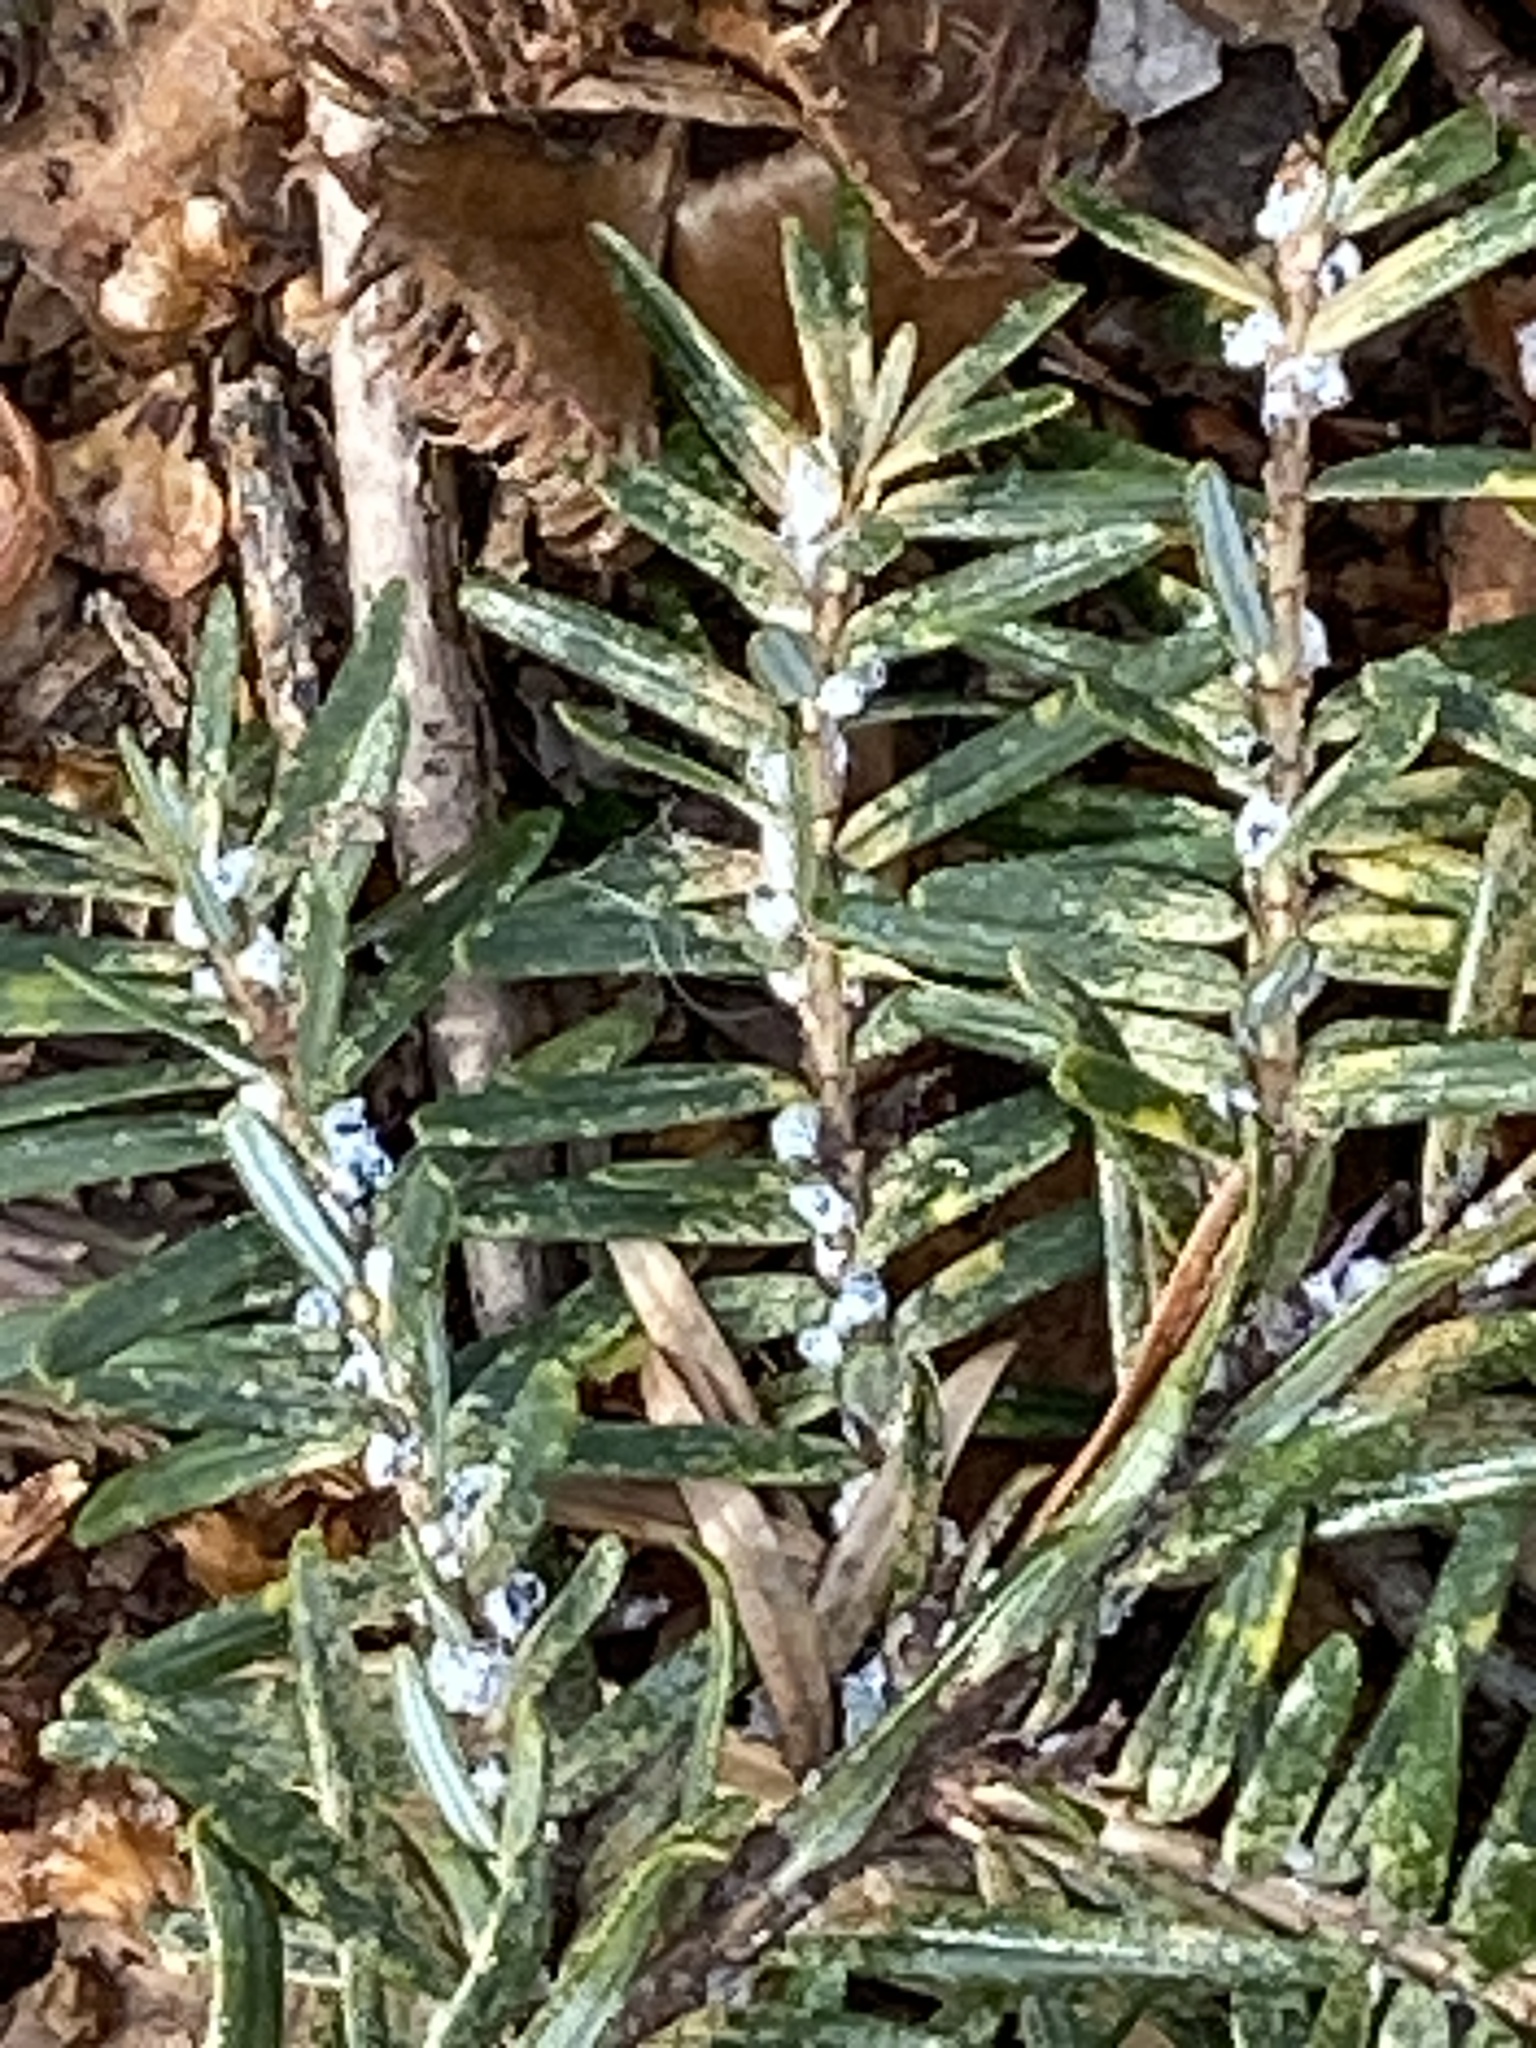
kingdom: Animalia
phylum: Arthropoda
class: Insecta
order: Hemiptera
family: Adelgidae
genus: Adelges
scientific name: Adelges tsugae
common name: Hemlock woolly adelgid
